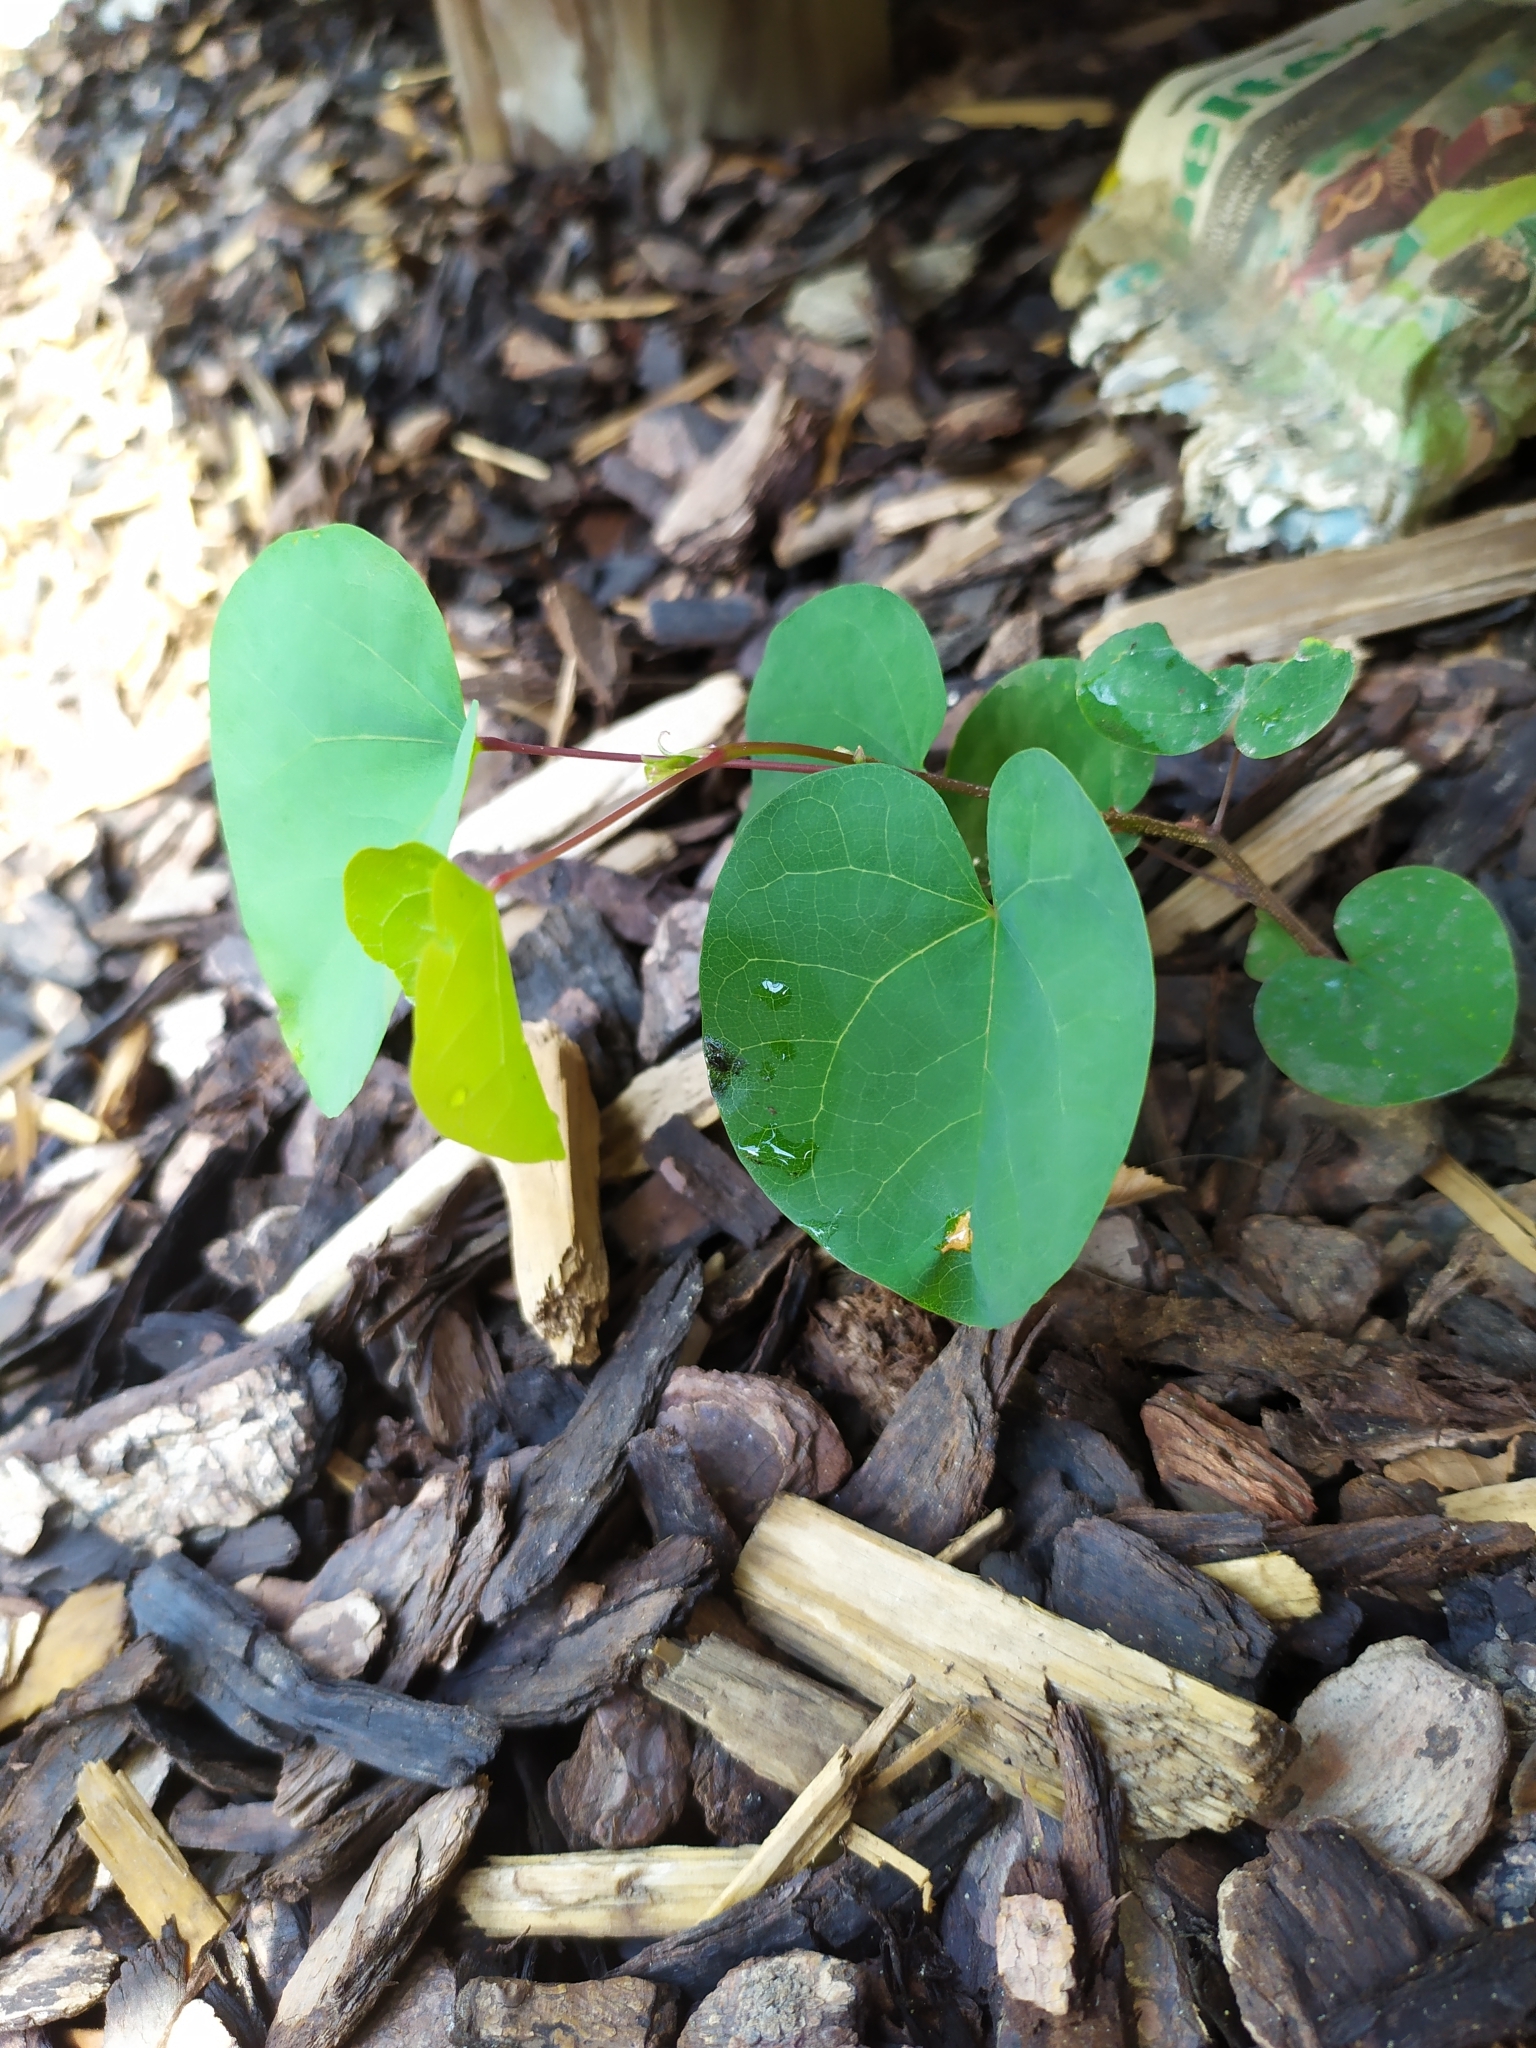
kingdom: Plantae
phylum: Tracheophyta
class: Magnoliopsida
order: Fabales
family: Fabaceae
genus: Cercis
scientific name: Cercis siliquastrum
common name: Judas tree
